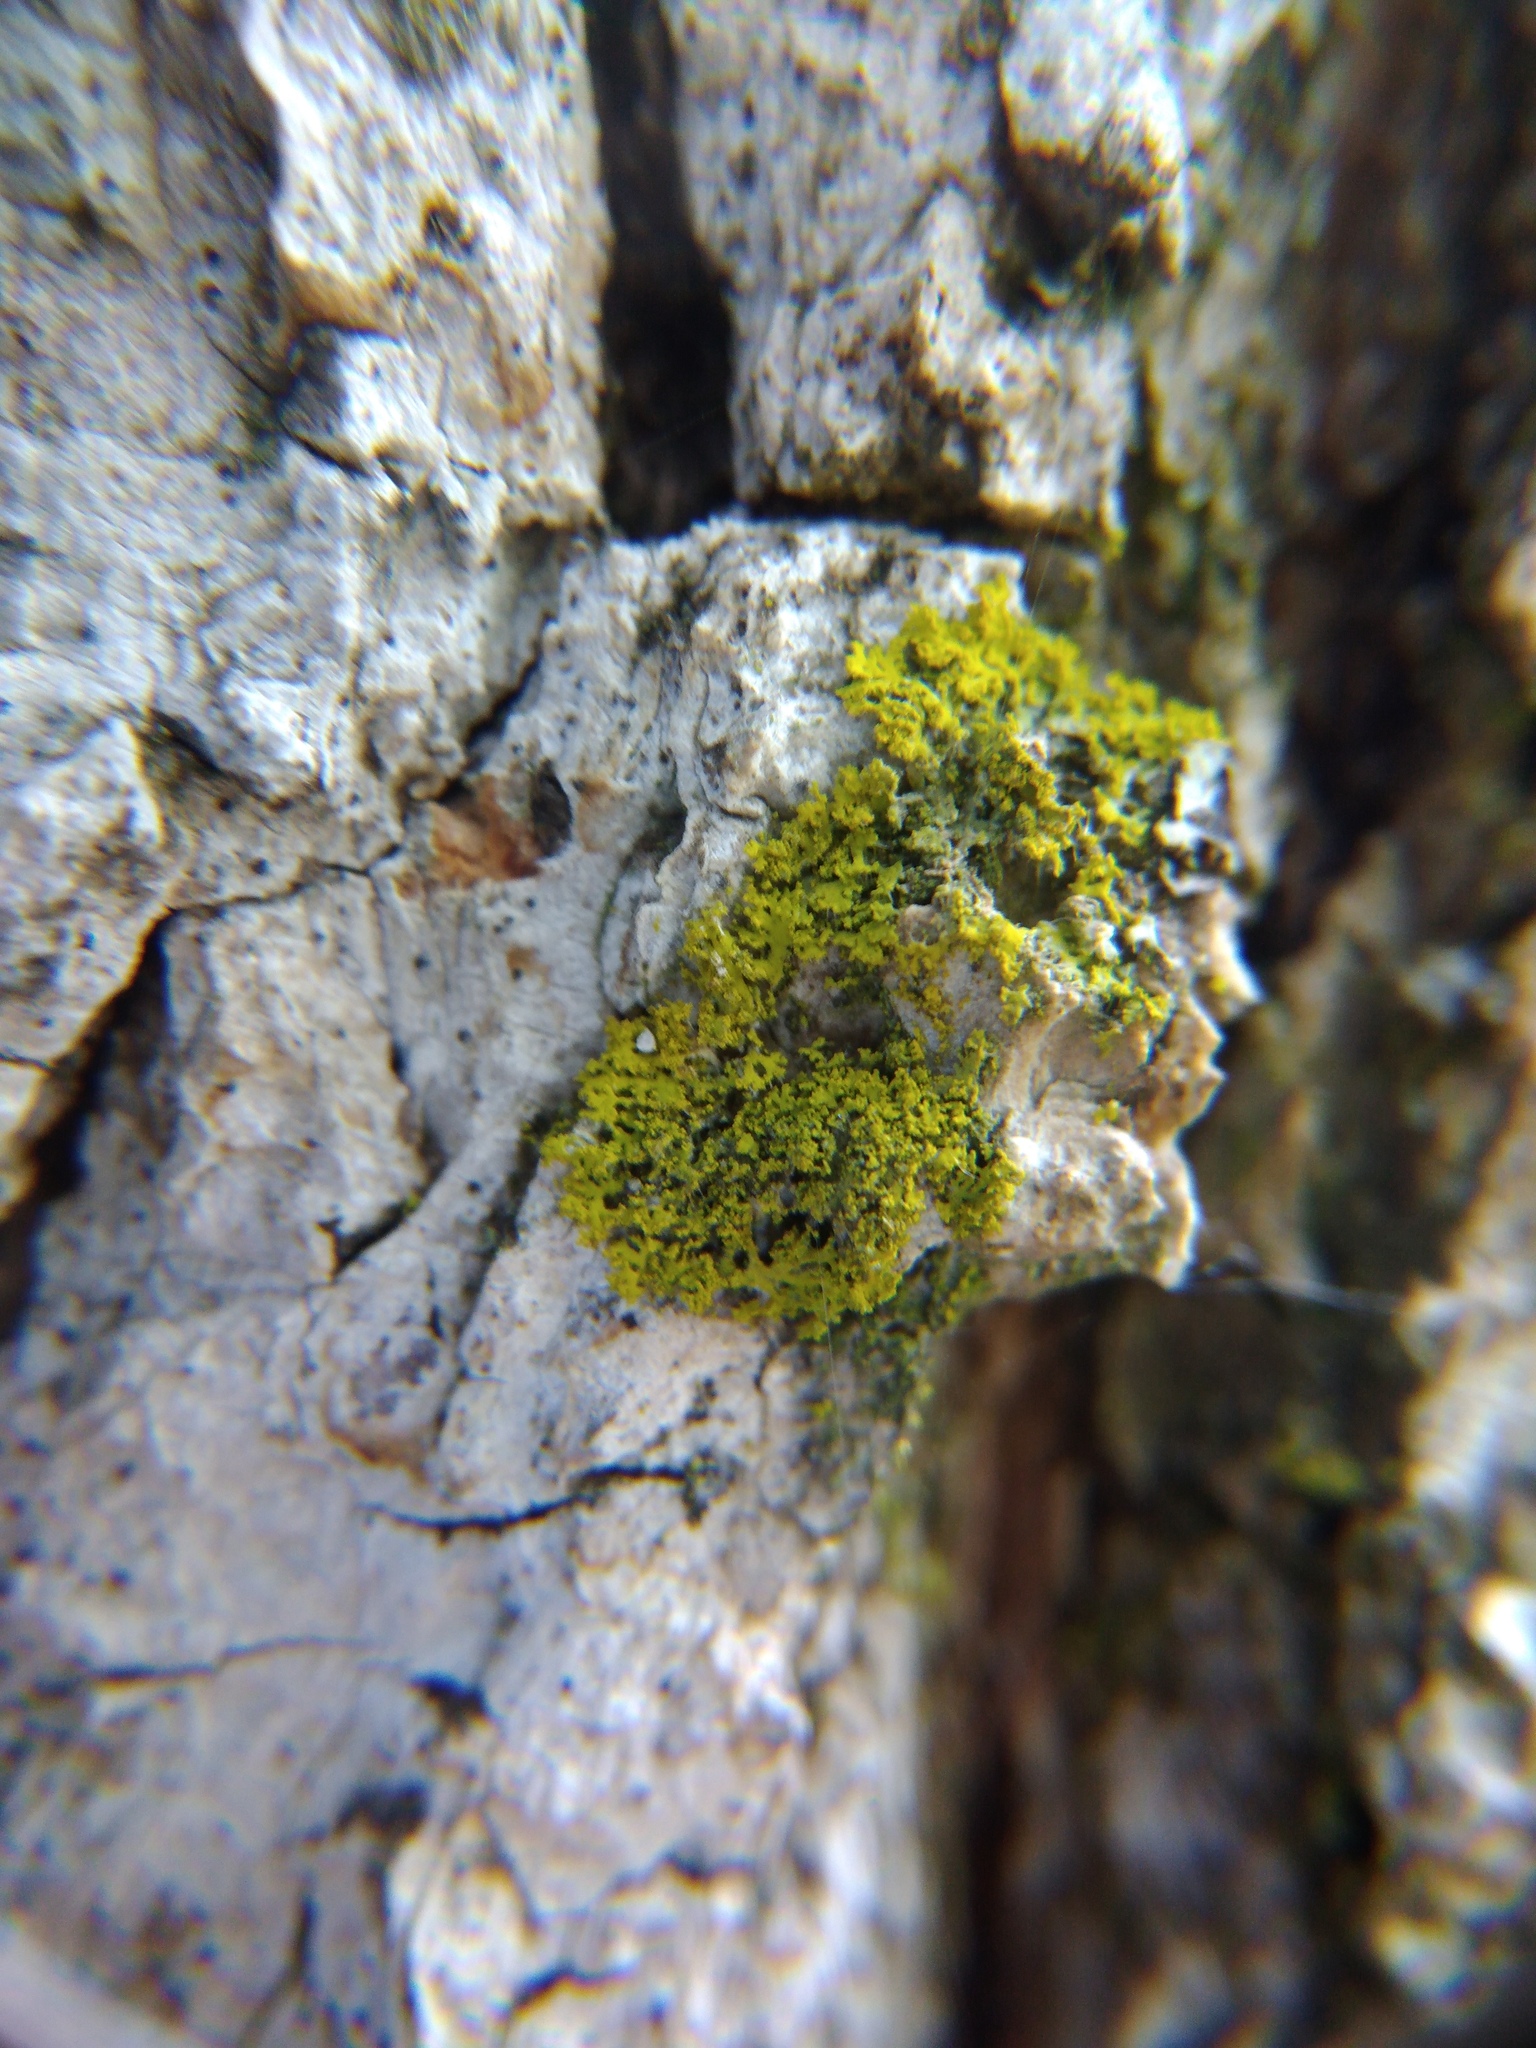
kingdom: Fungi
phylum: Ascomycota
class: Candelariomycetes
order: Candelariales
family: Candelariaceae
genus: Candelaria
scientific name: Candelaria concolor
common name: Candleflame lichen
